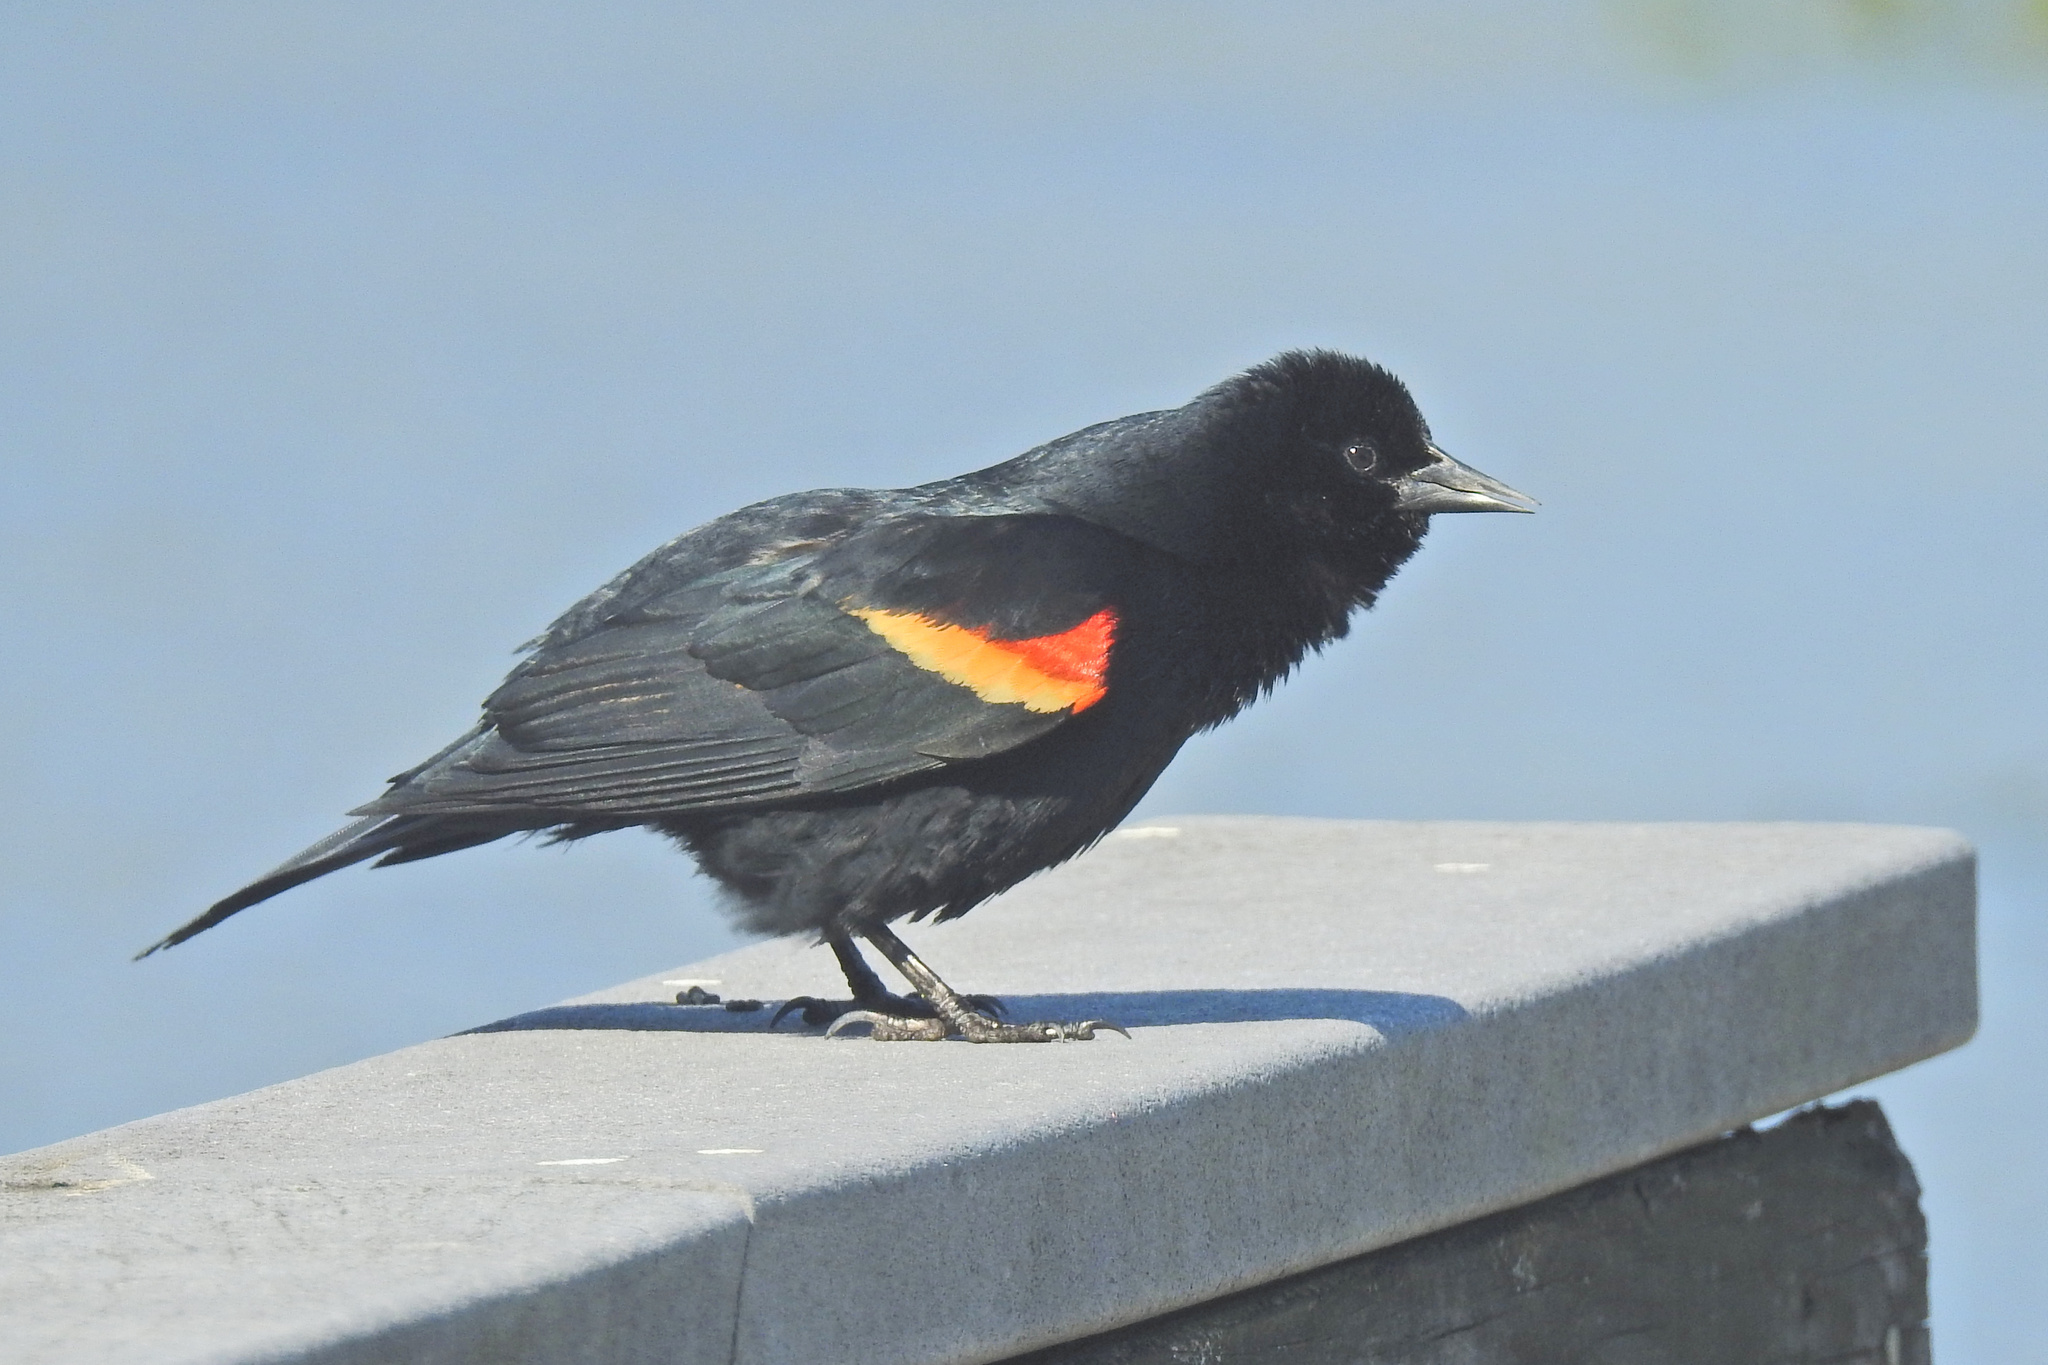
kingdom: Animalia
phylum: Chordata
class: Aves
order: Passeriformes
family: Icteridae
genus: Agelaius
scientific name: Agelaius phoeniceus
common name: Red-winged blackbird
